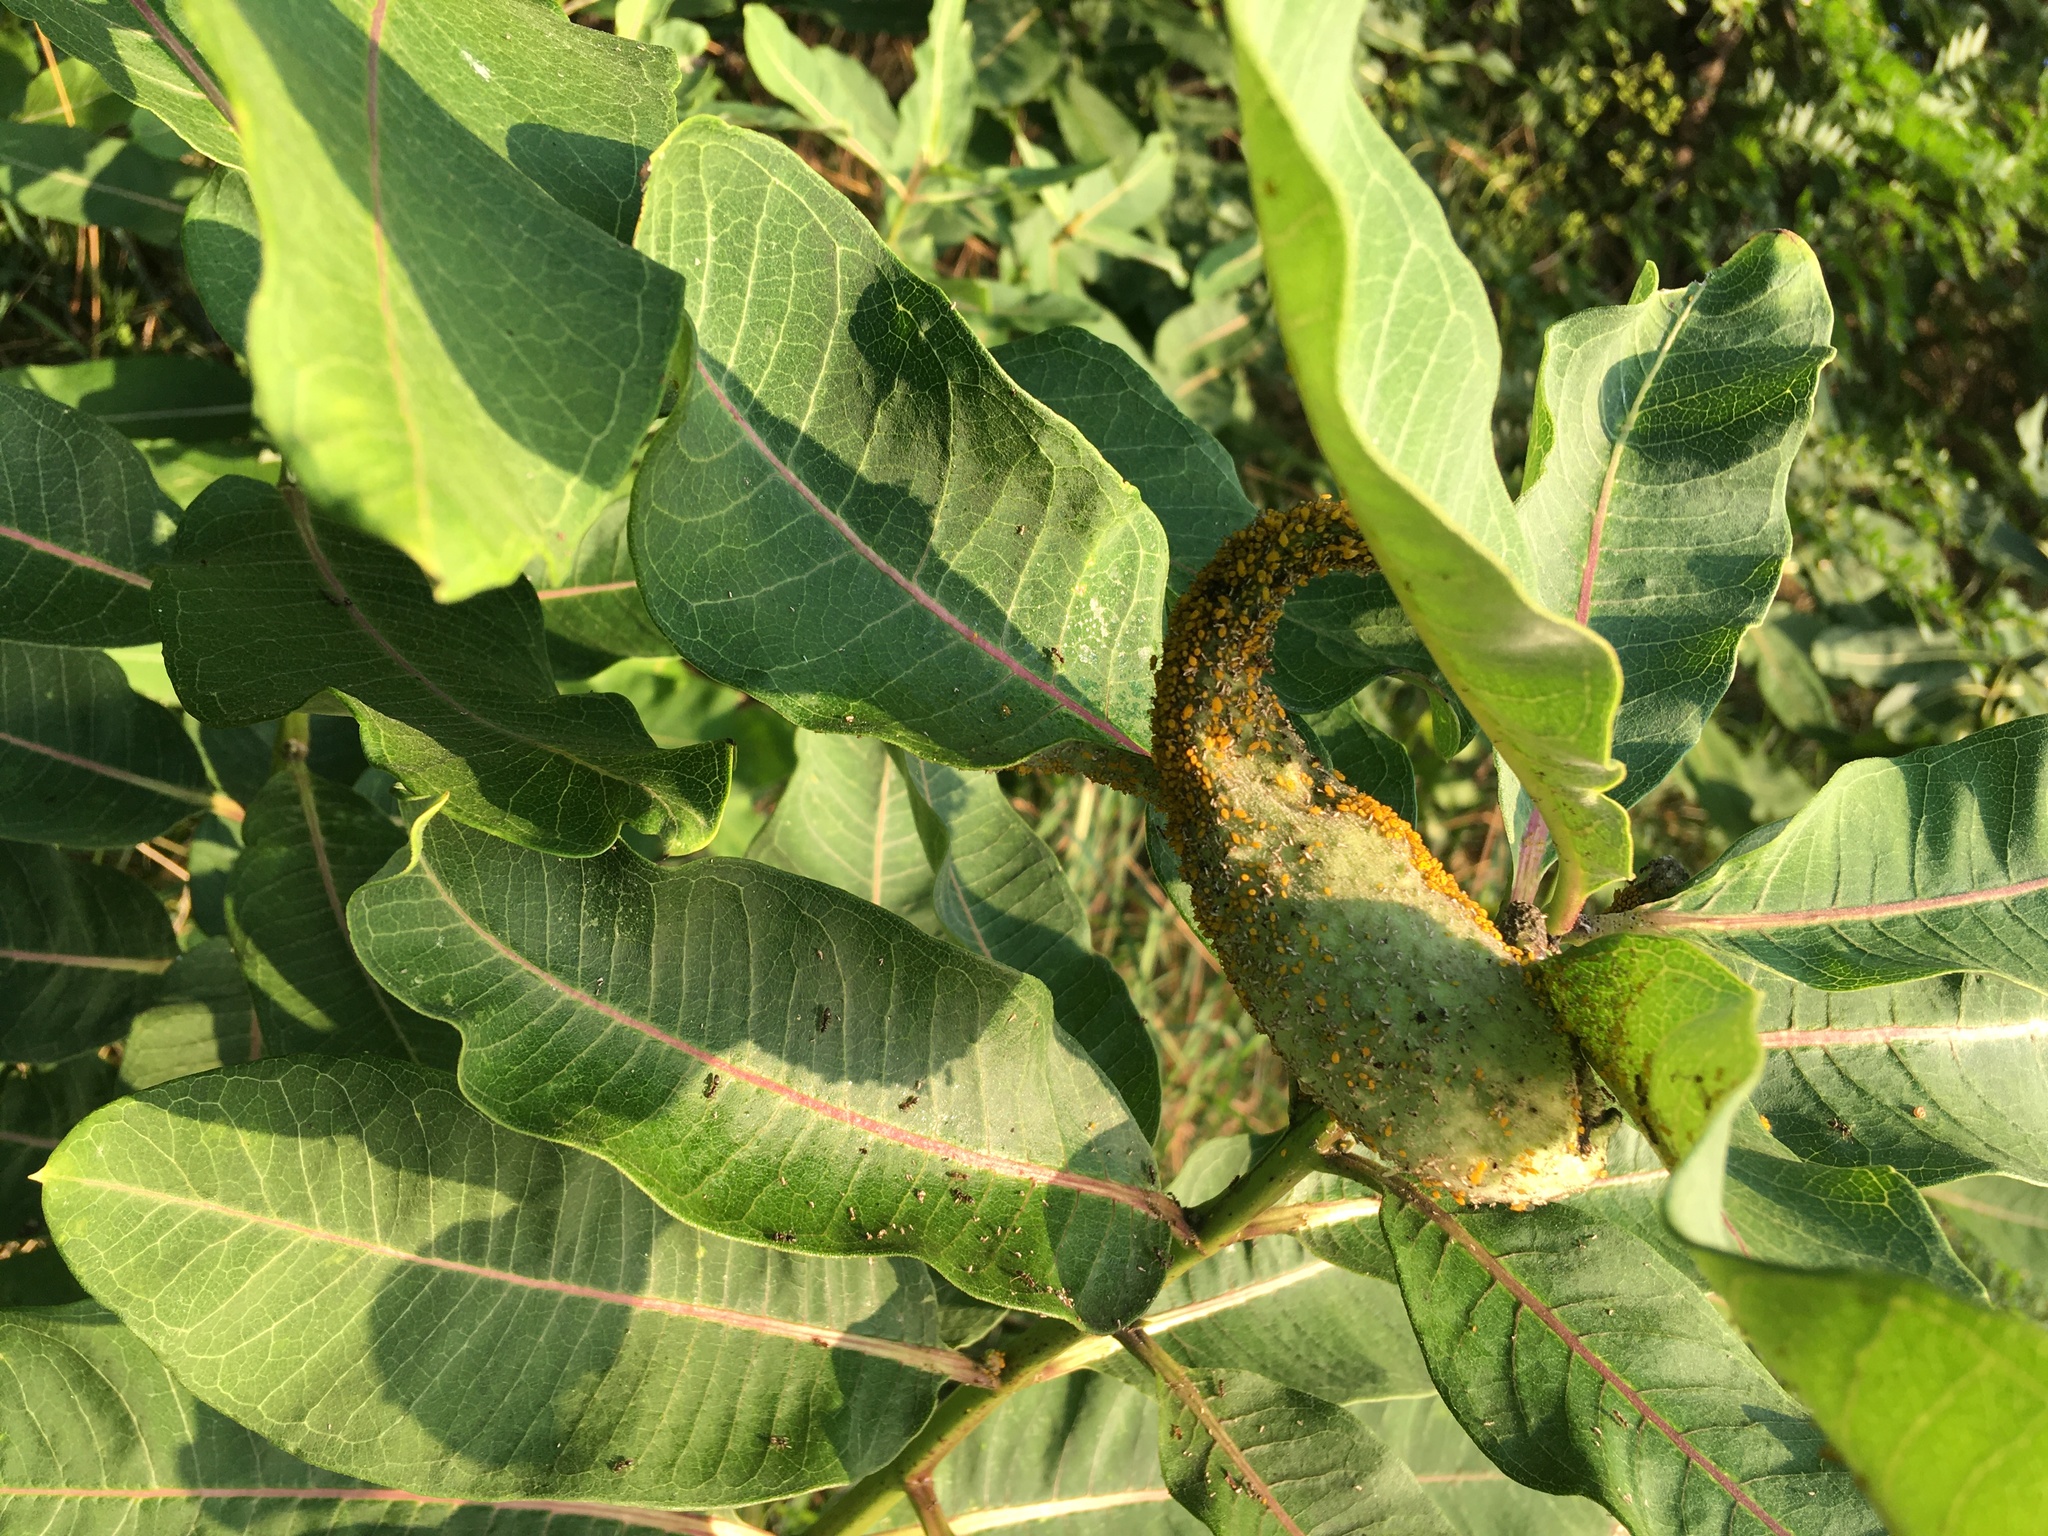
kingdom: Plantae
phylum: Tracheophyta
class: Magnoliopsida
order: Gentianales
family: Apocynaceae
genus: Asclepias
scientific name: Asclepias syriaca
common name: Common milkweed
